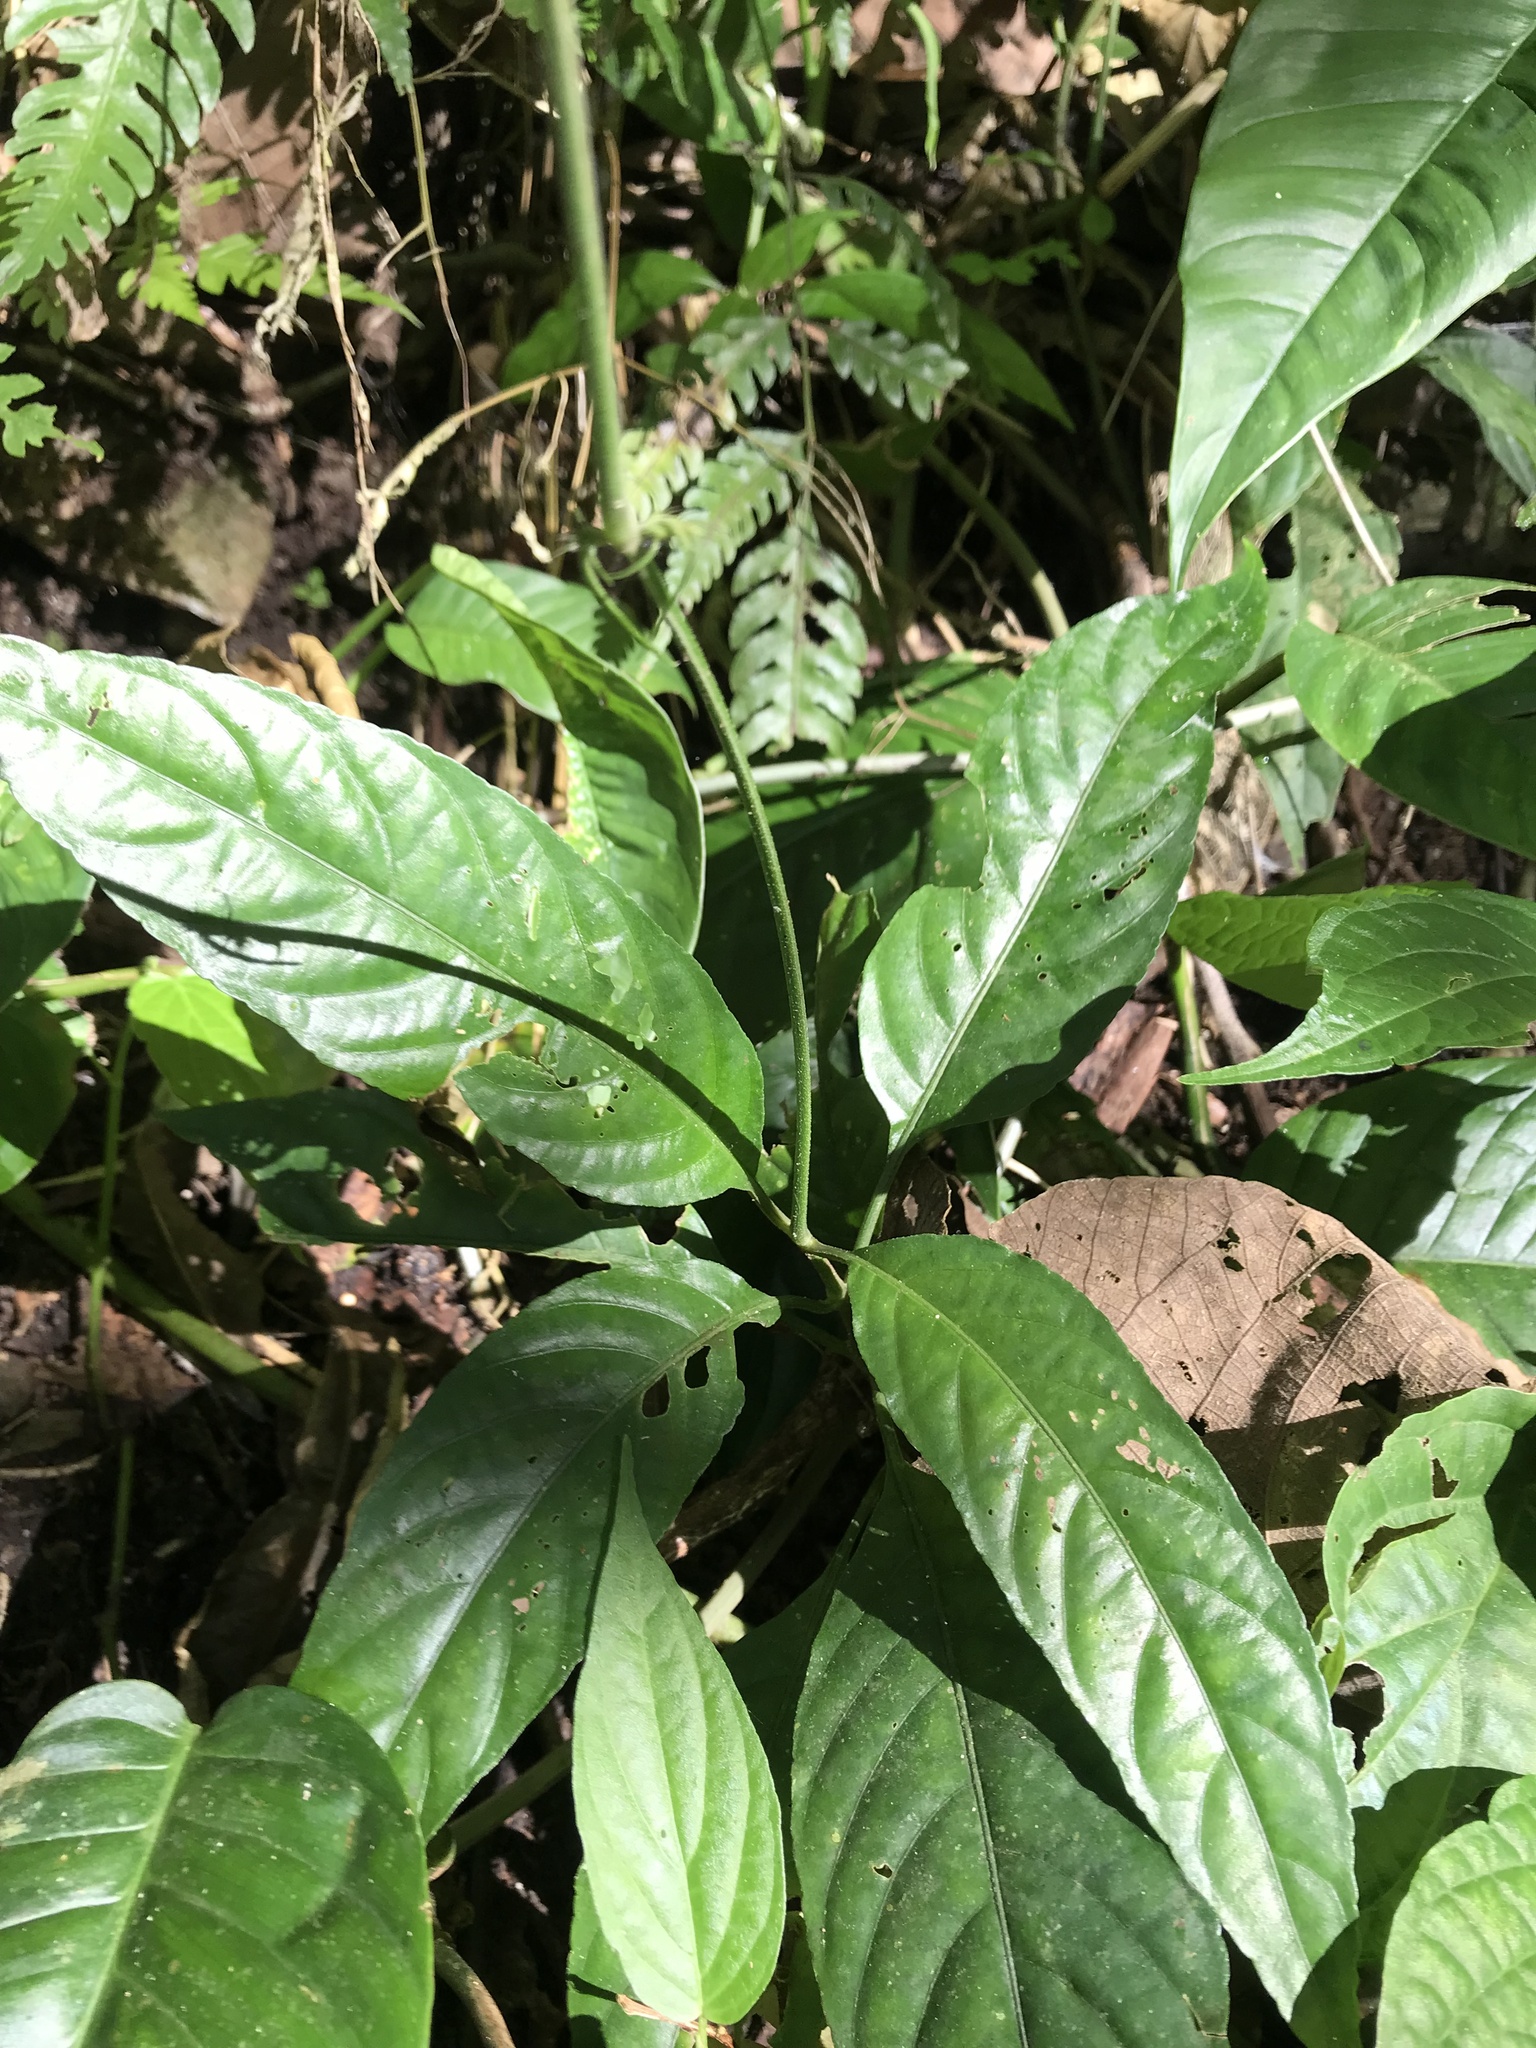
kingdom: Plantae
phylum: Tracheophyta
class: Magnoliopsida
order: Lamiales
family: Acanthaceae
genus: Dianthera
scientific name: Dianthera secunda
